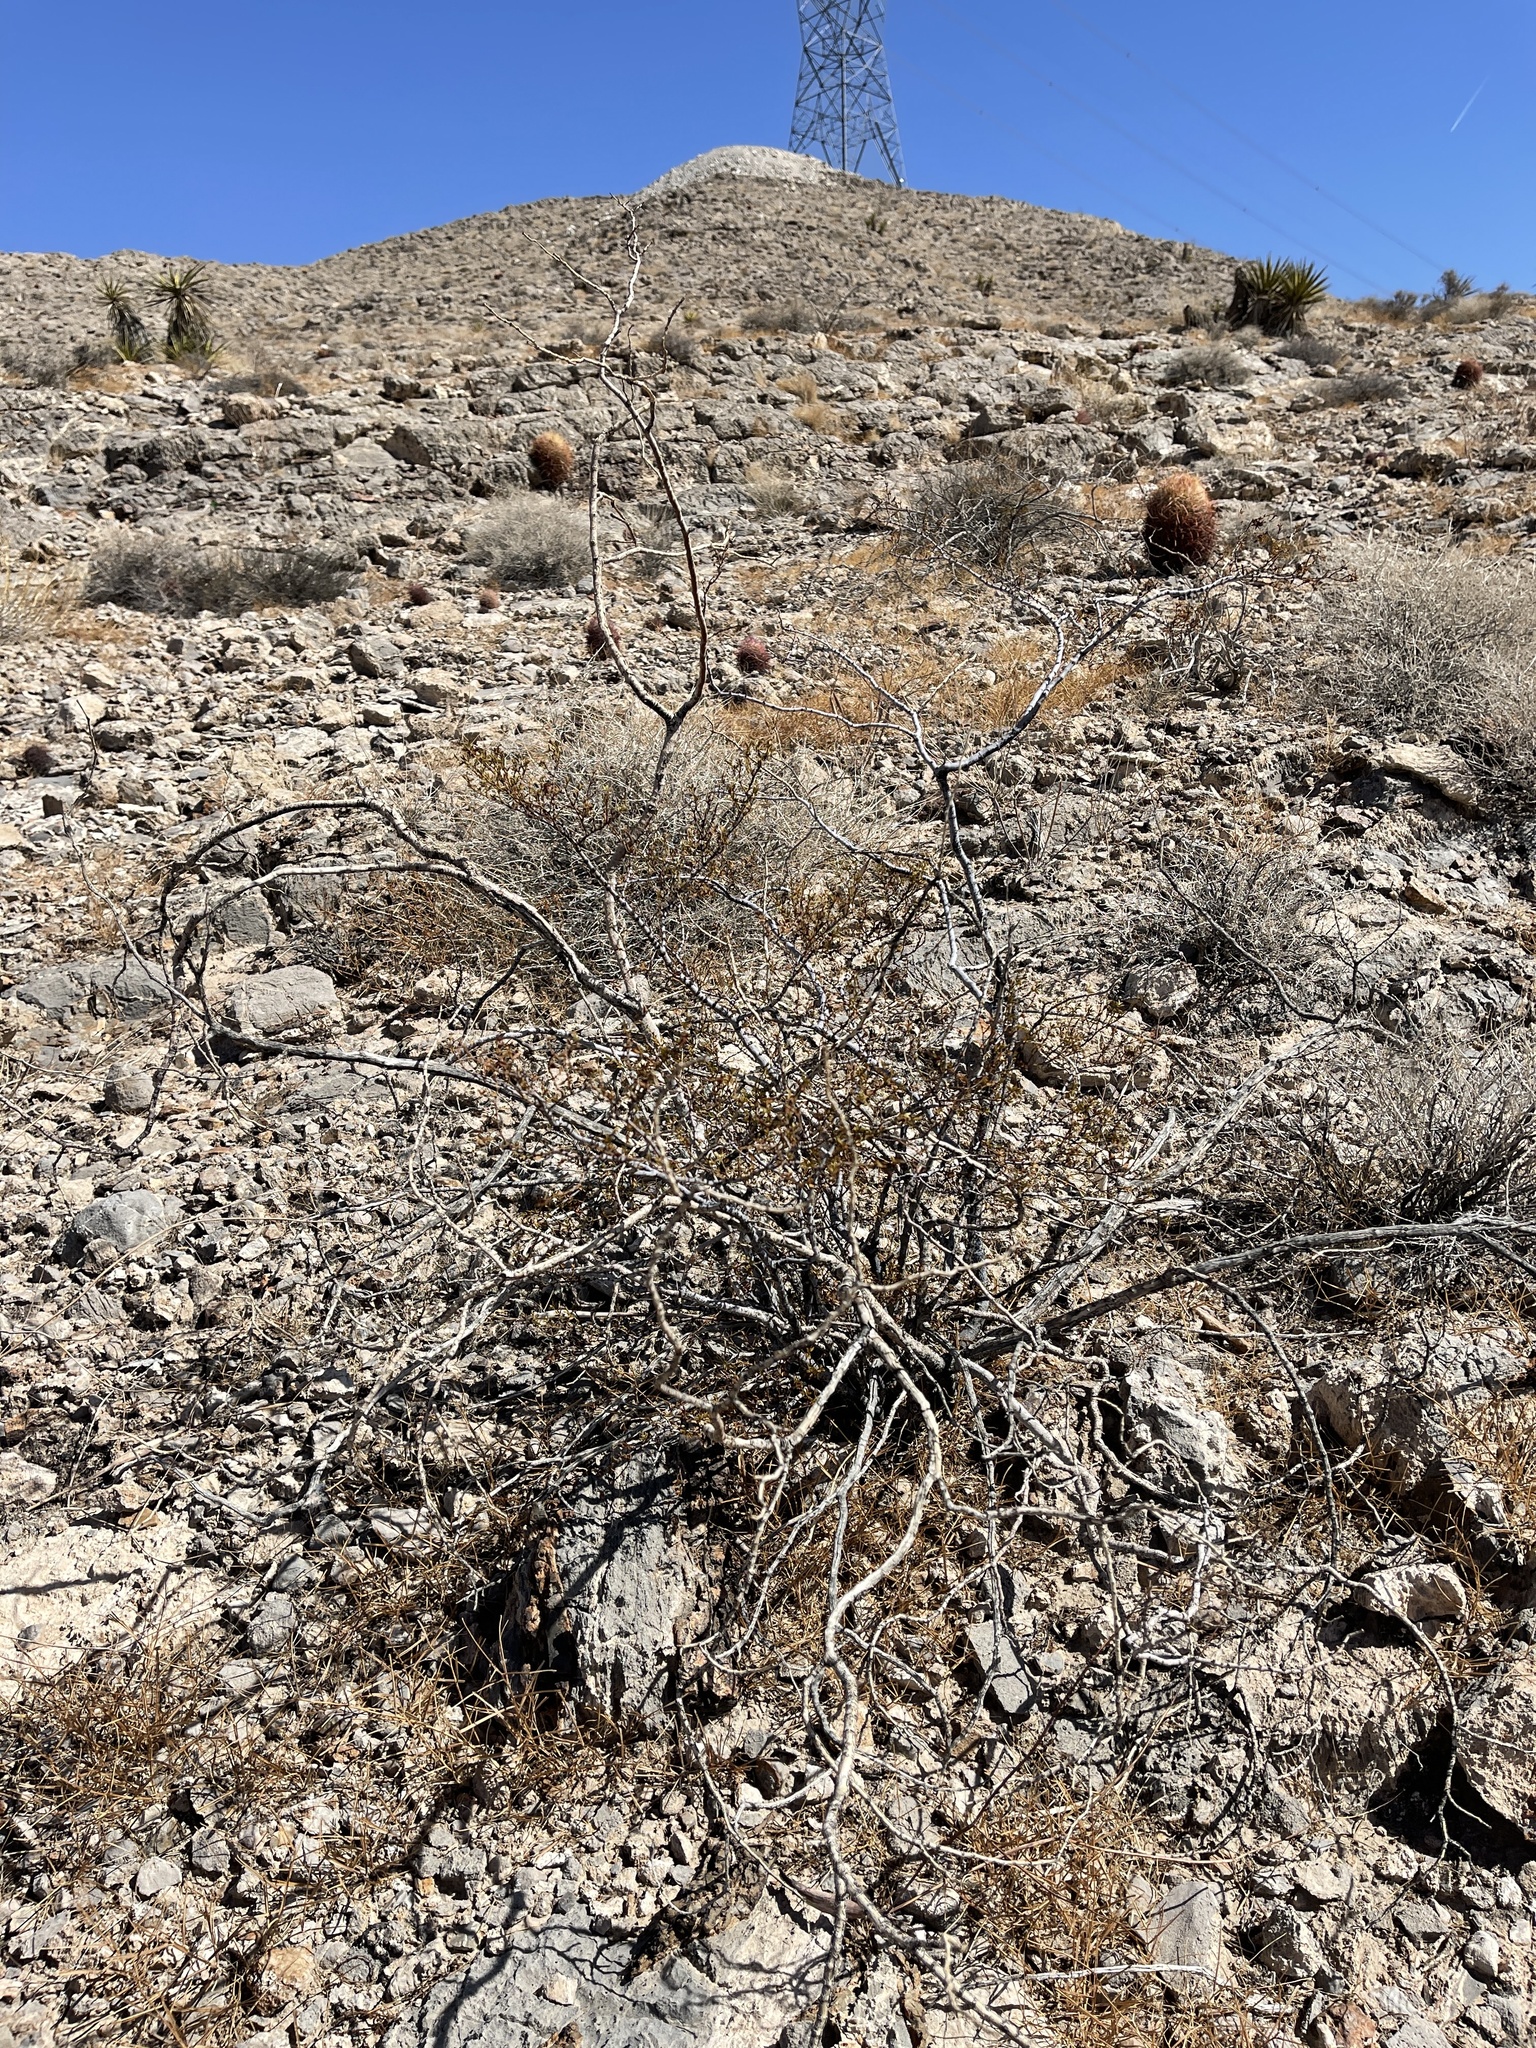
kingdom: Plantae
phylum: Tracheophyta
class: Magnoliopsida
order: Zygophyllales
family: Zygophyllaceae
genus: Larrea
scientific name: Larrea tridentata
